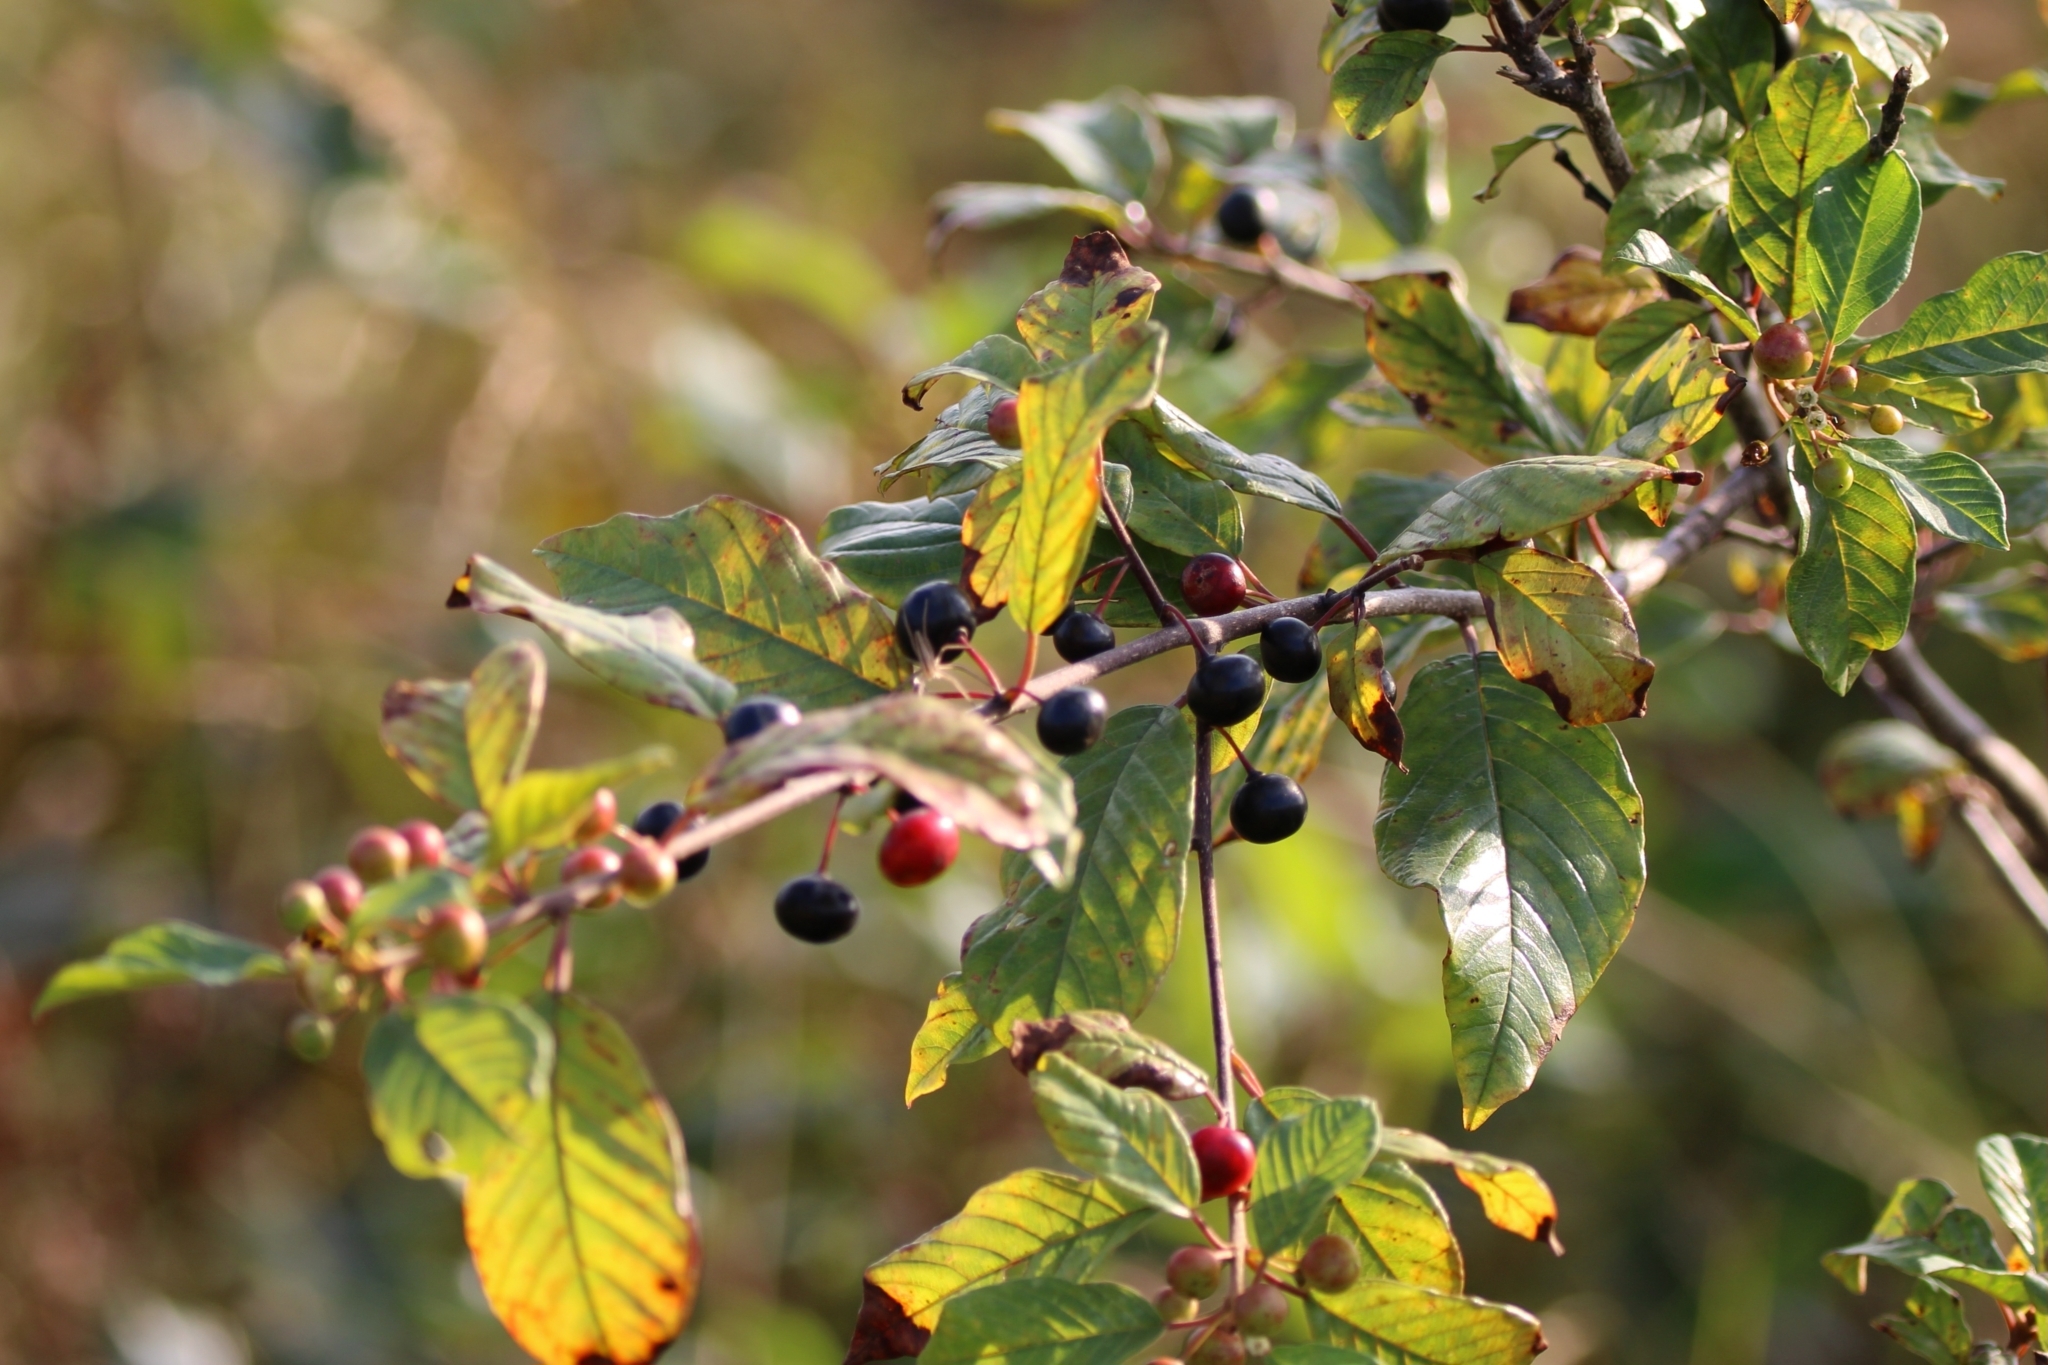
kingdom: Plantae
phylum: Tracheophyta
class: Magnoliopsida
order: Rosales
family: Rhamnaceae
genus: Frangula
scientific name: Frangula alnus
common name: Alder buckthorn
